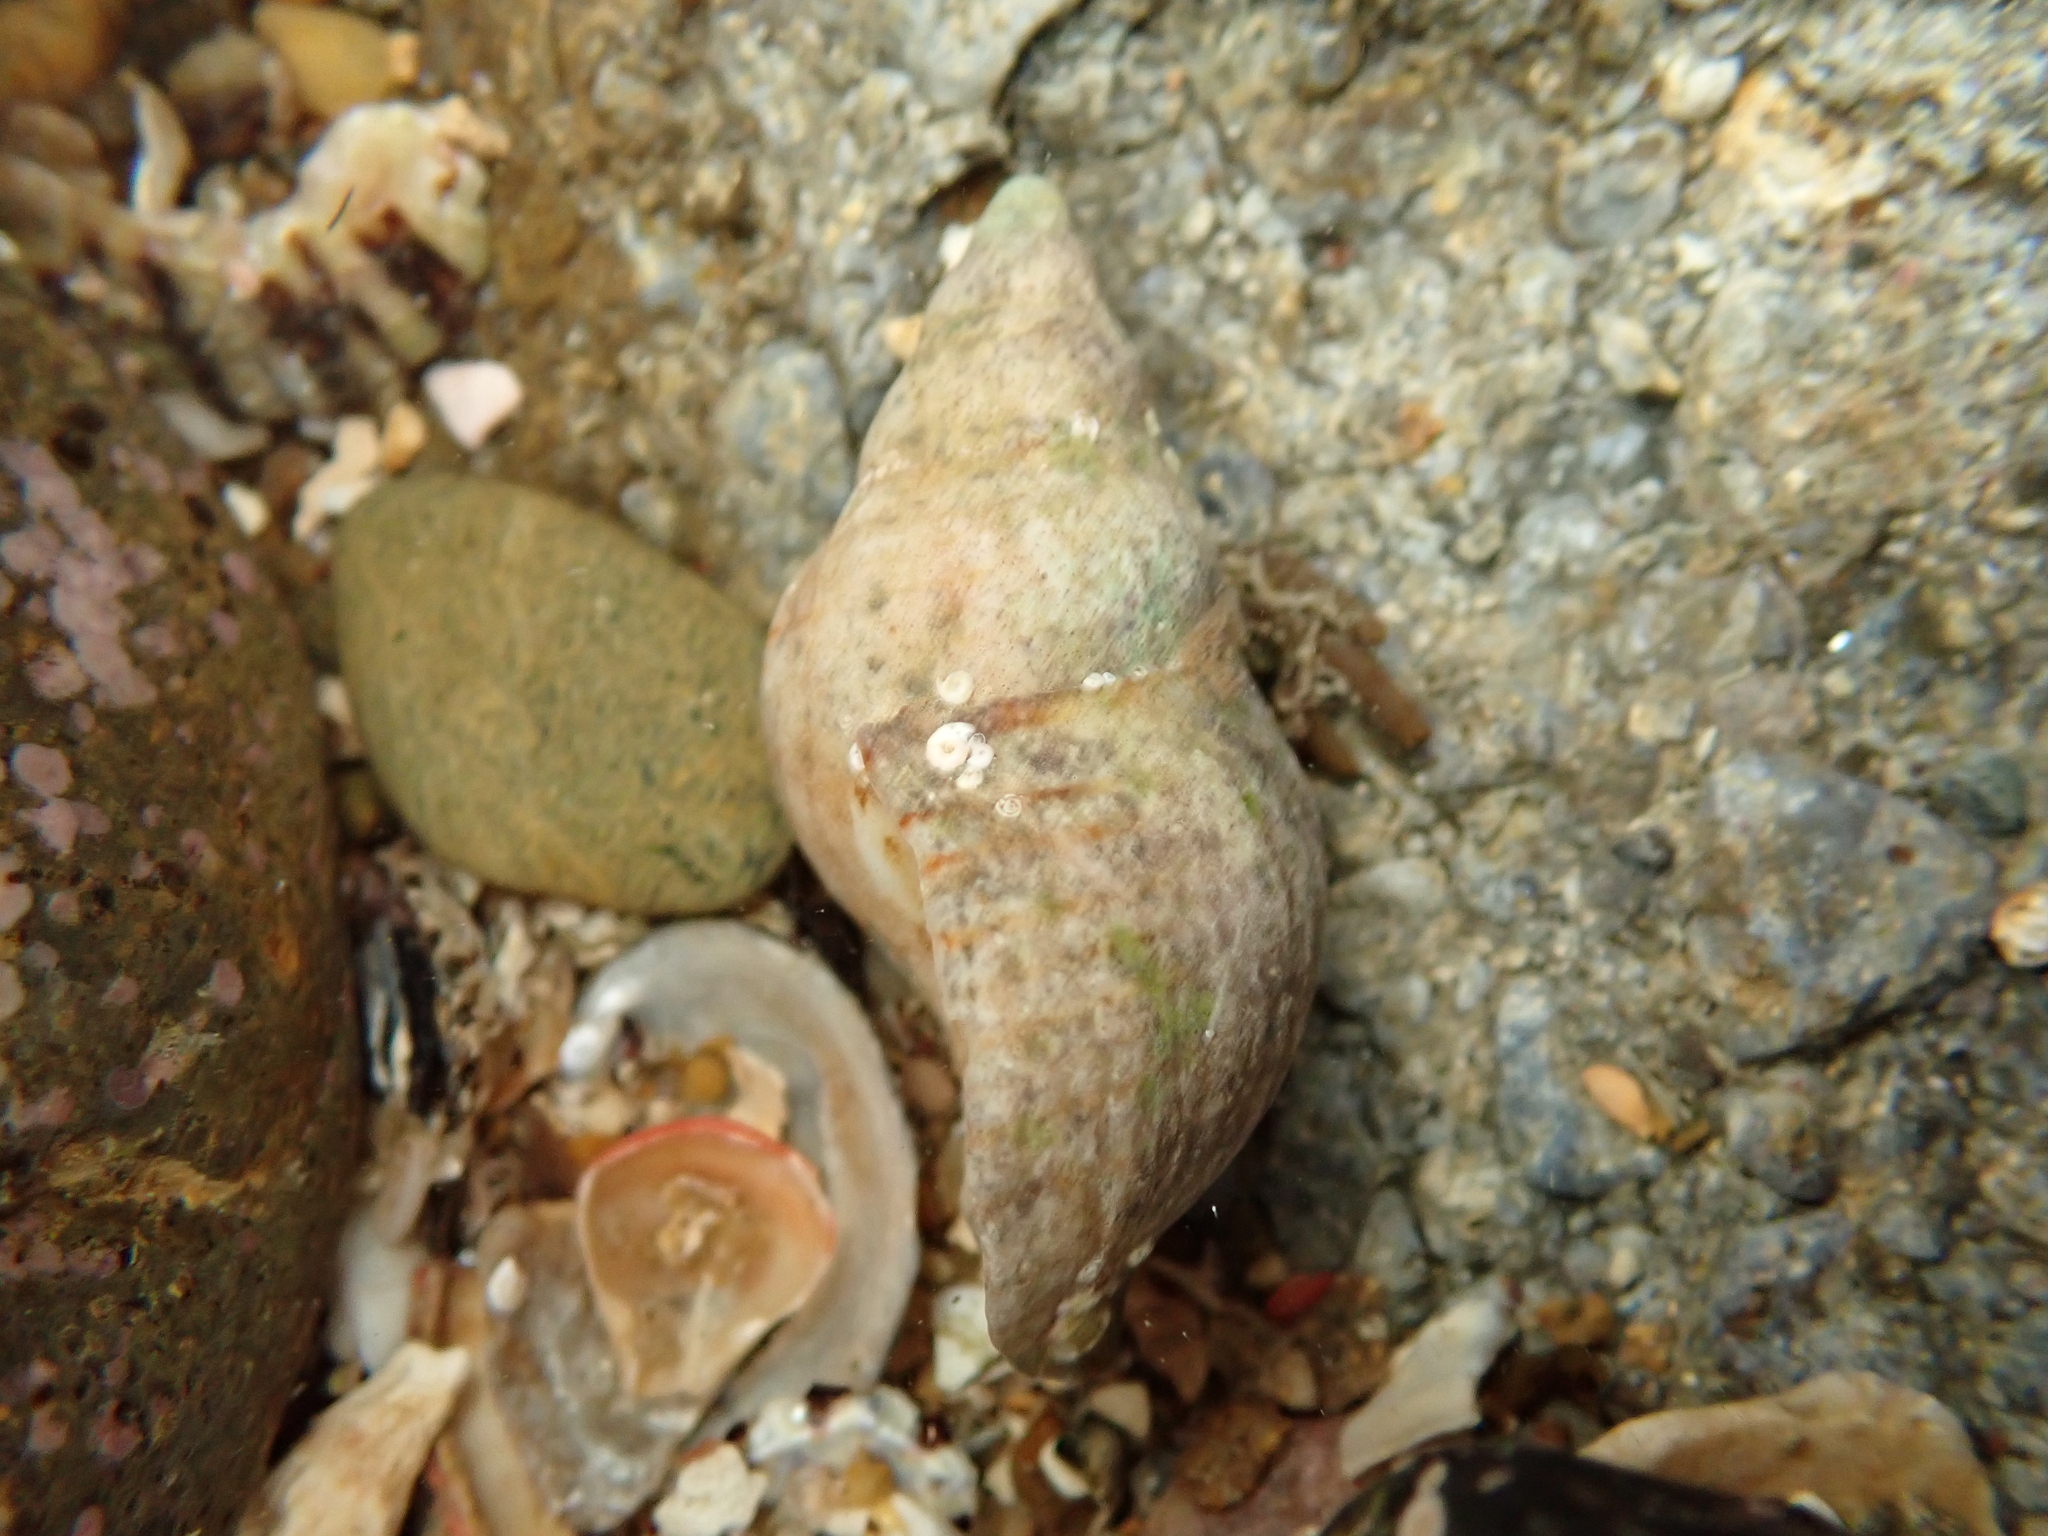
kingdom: Animalia
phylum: Mollusca
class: Gastropoda
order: Neogastropoda
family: Tudiclidae
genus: Buccinulum
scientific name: Buccinulum pertinax
